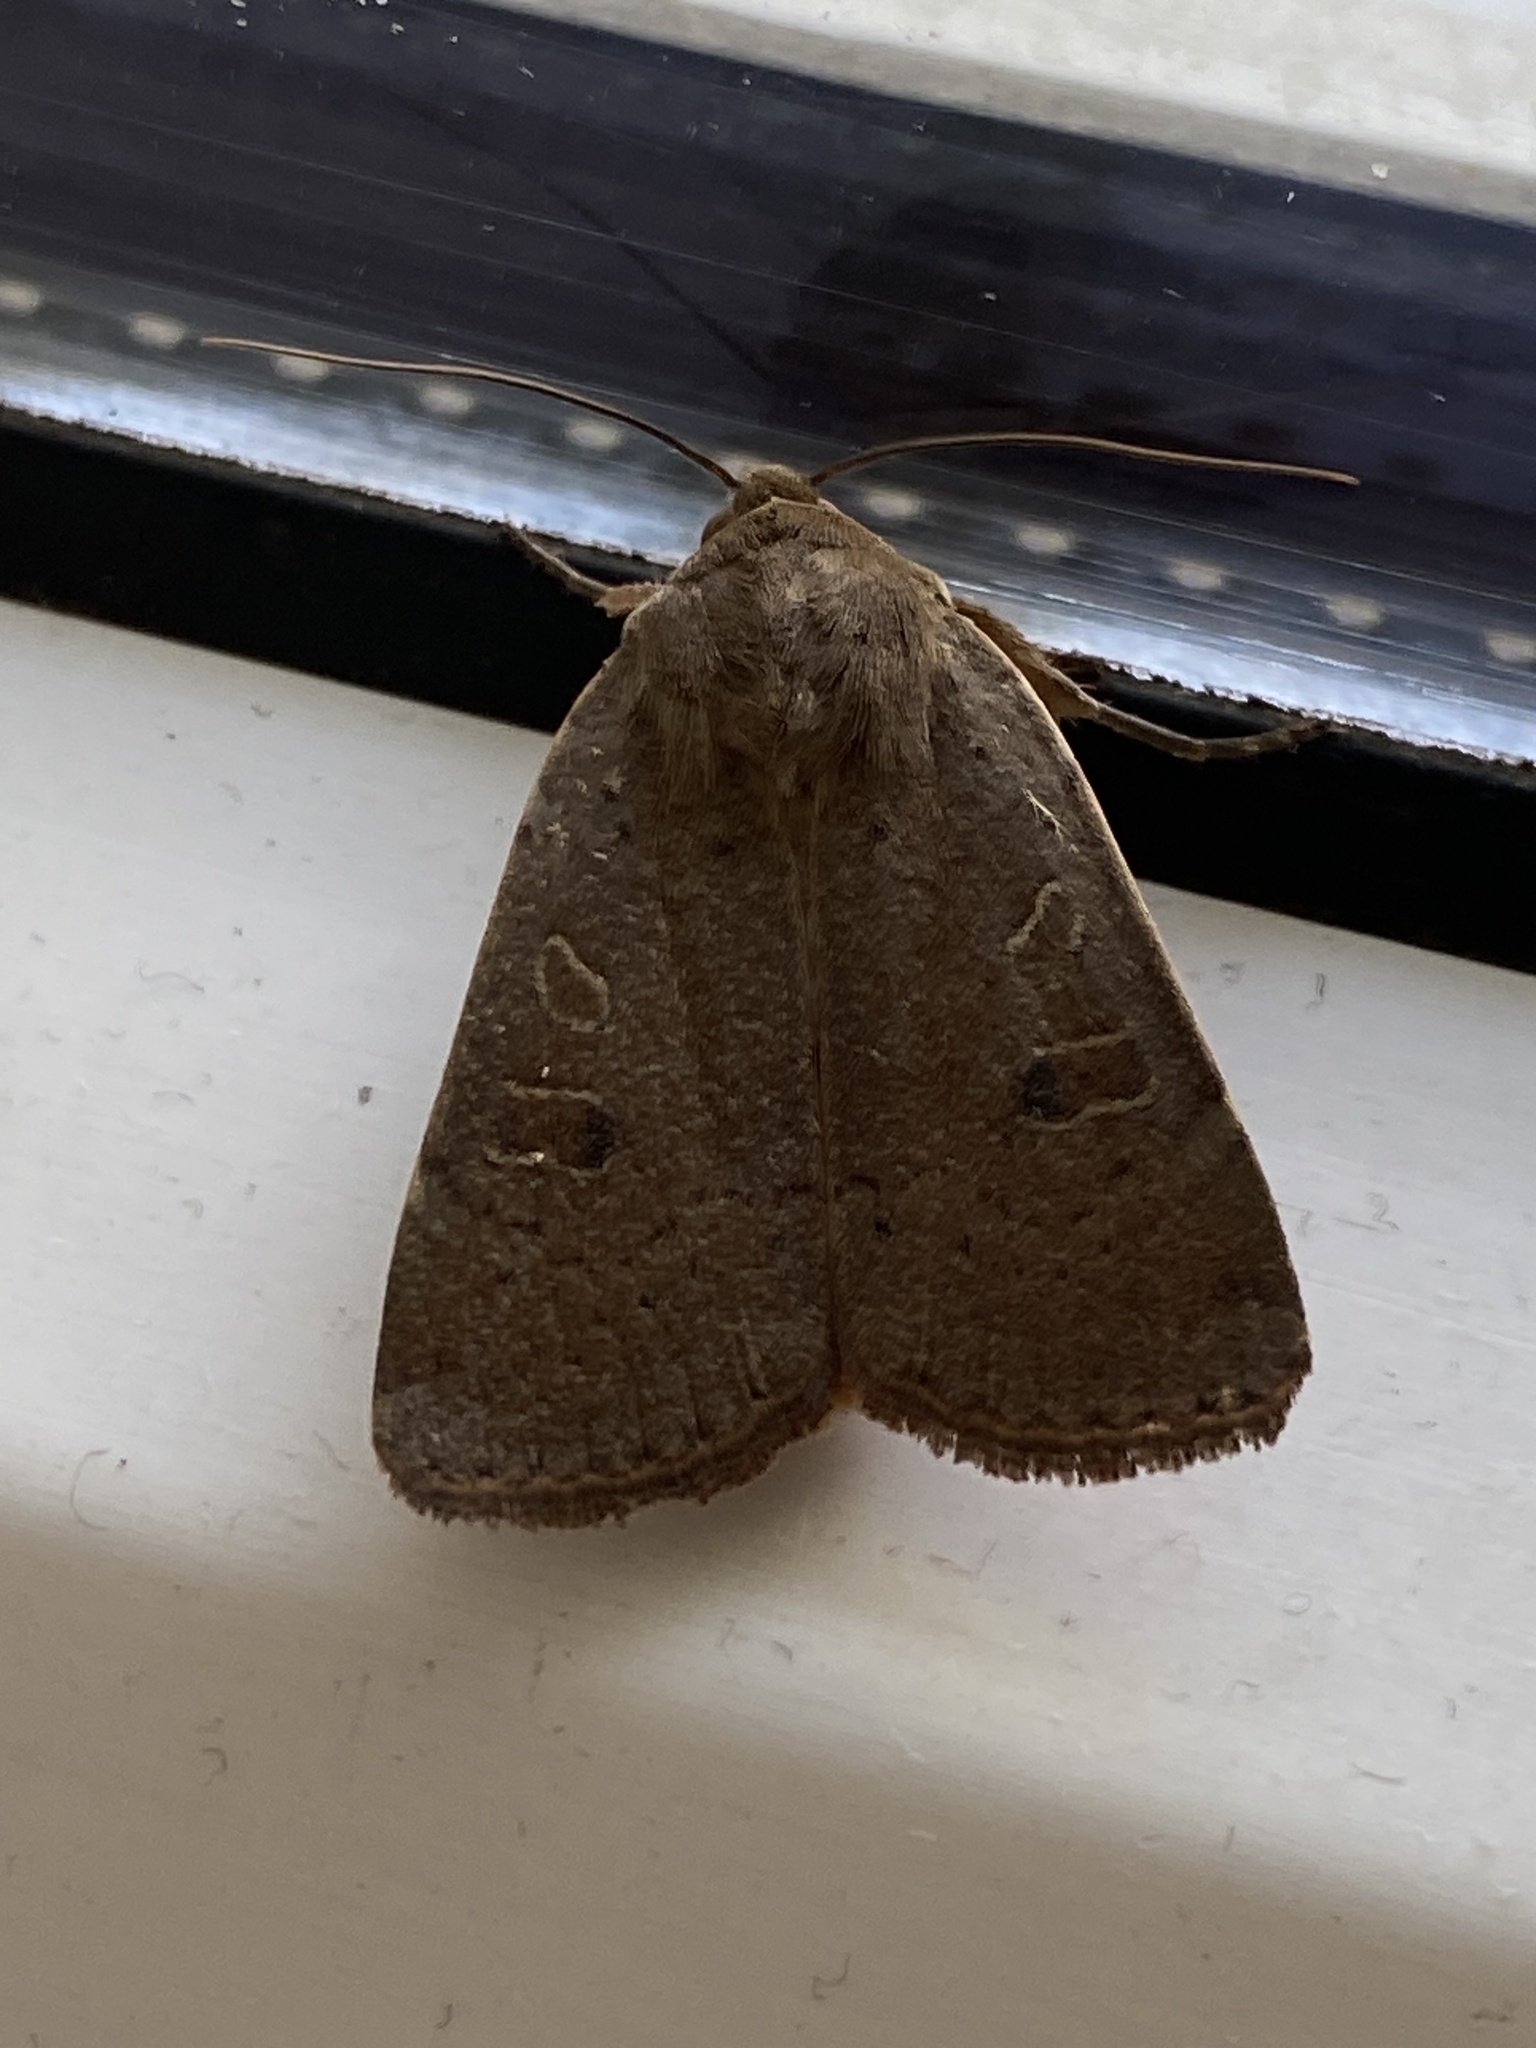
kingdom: Animalia
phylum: Arthropoda
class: Insecta
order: Lepidoptera
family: Noctuidae
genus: Noctua
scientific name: Noctua comes
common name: Lesser yellow underwing
